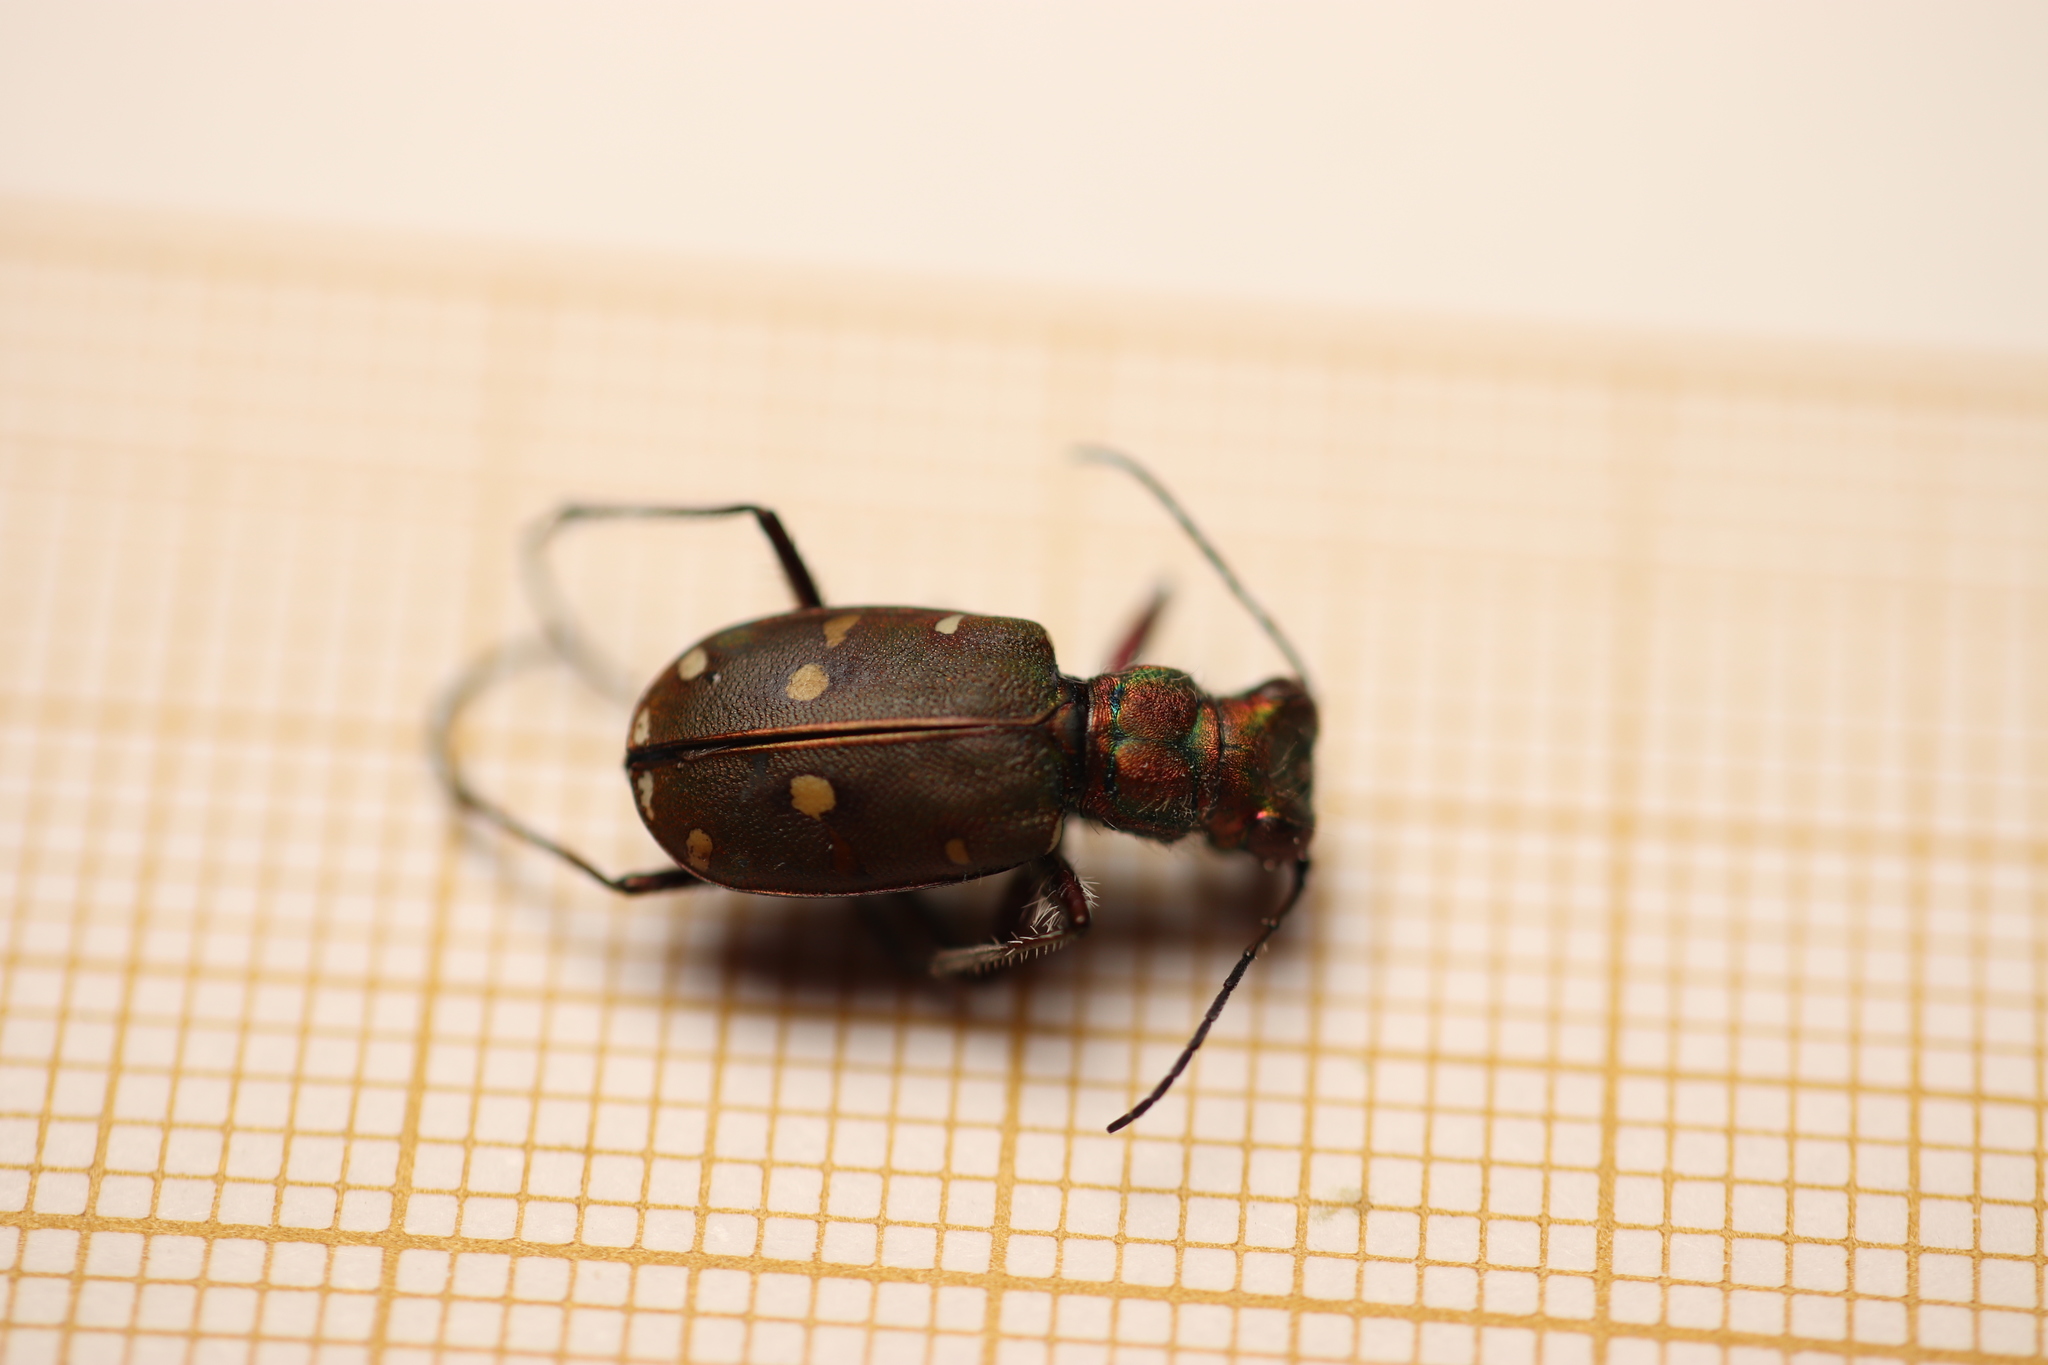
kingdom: Animalia
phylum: Arthropoda
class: Insecta
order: Coleoptera
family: Carabidae
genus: Cicindela
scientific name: Cicindela maroccana
